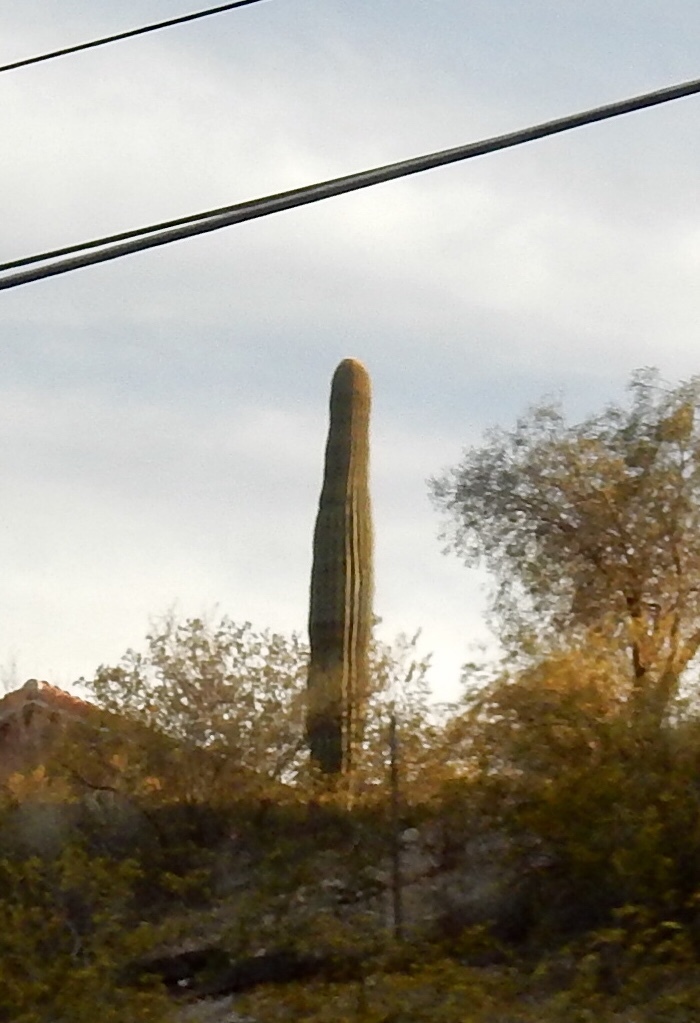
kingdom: Plantae
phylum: Tracheophyta
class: Magnoliopsida
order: Caryophyllales
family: Cactaceae
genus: Carnegiea
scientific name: Carnegiea gigantea
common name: Saguaro
